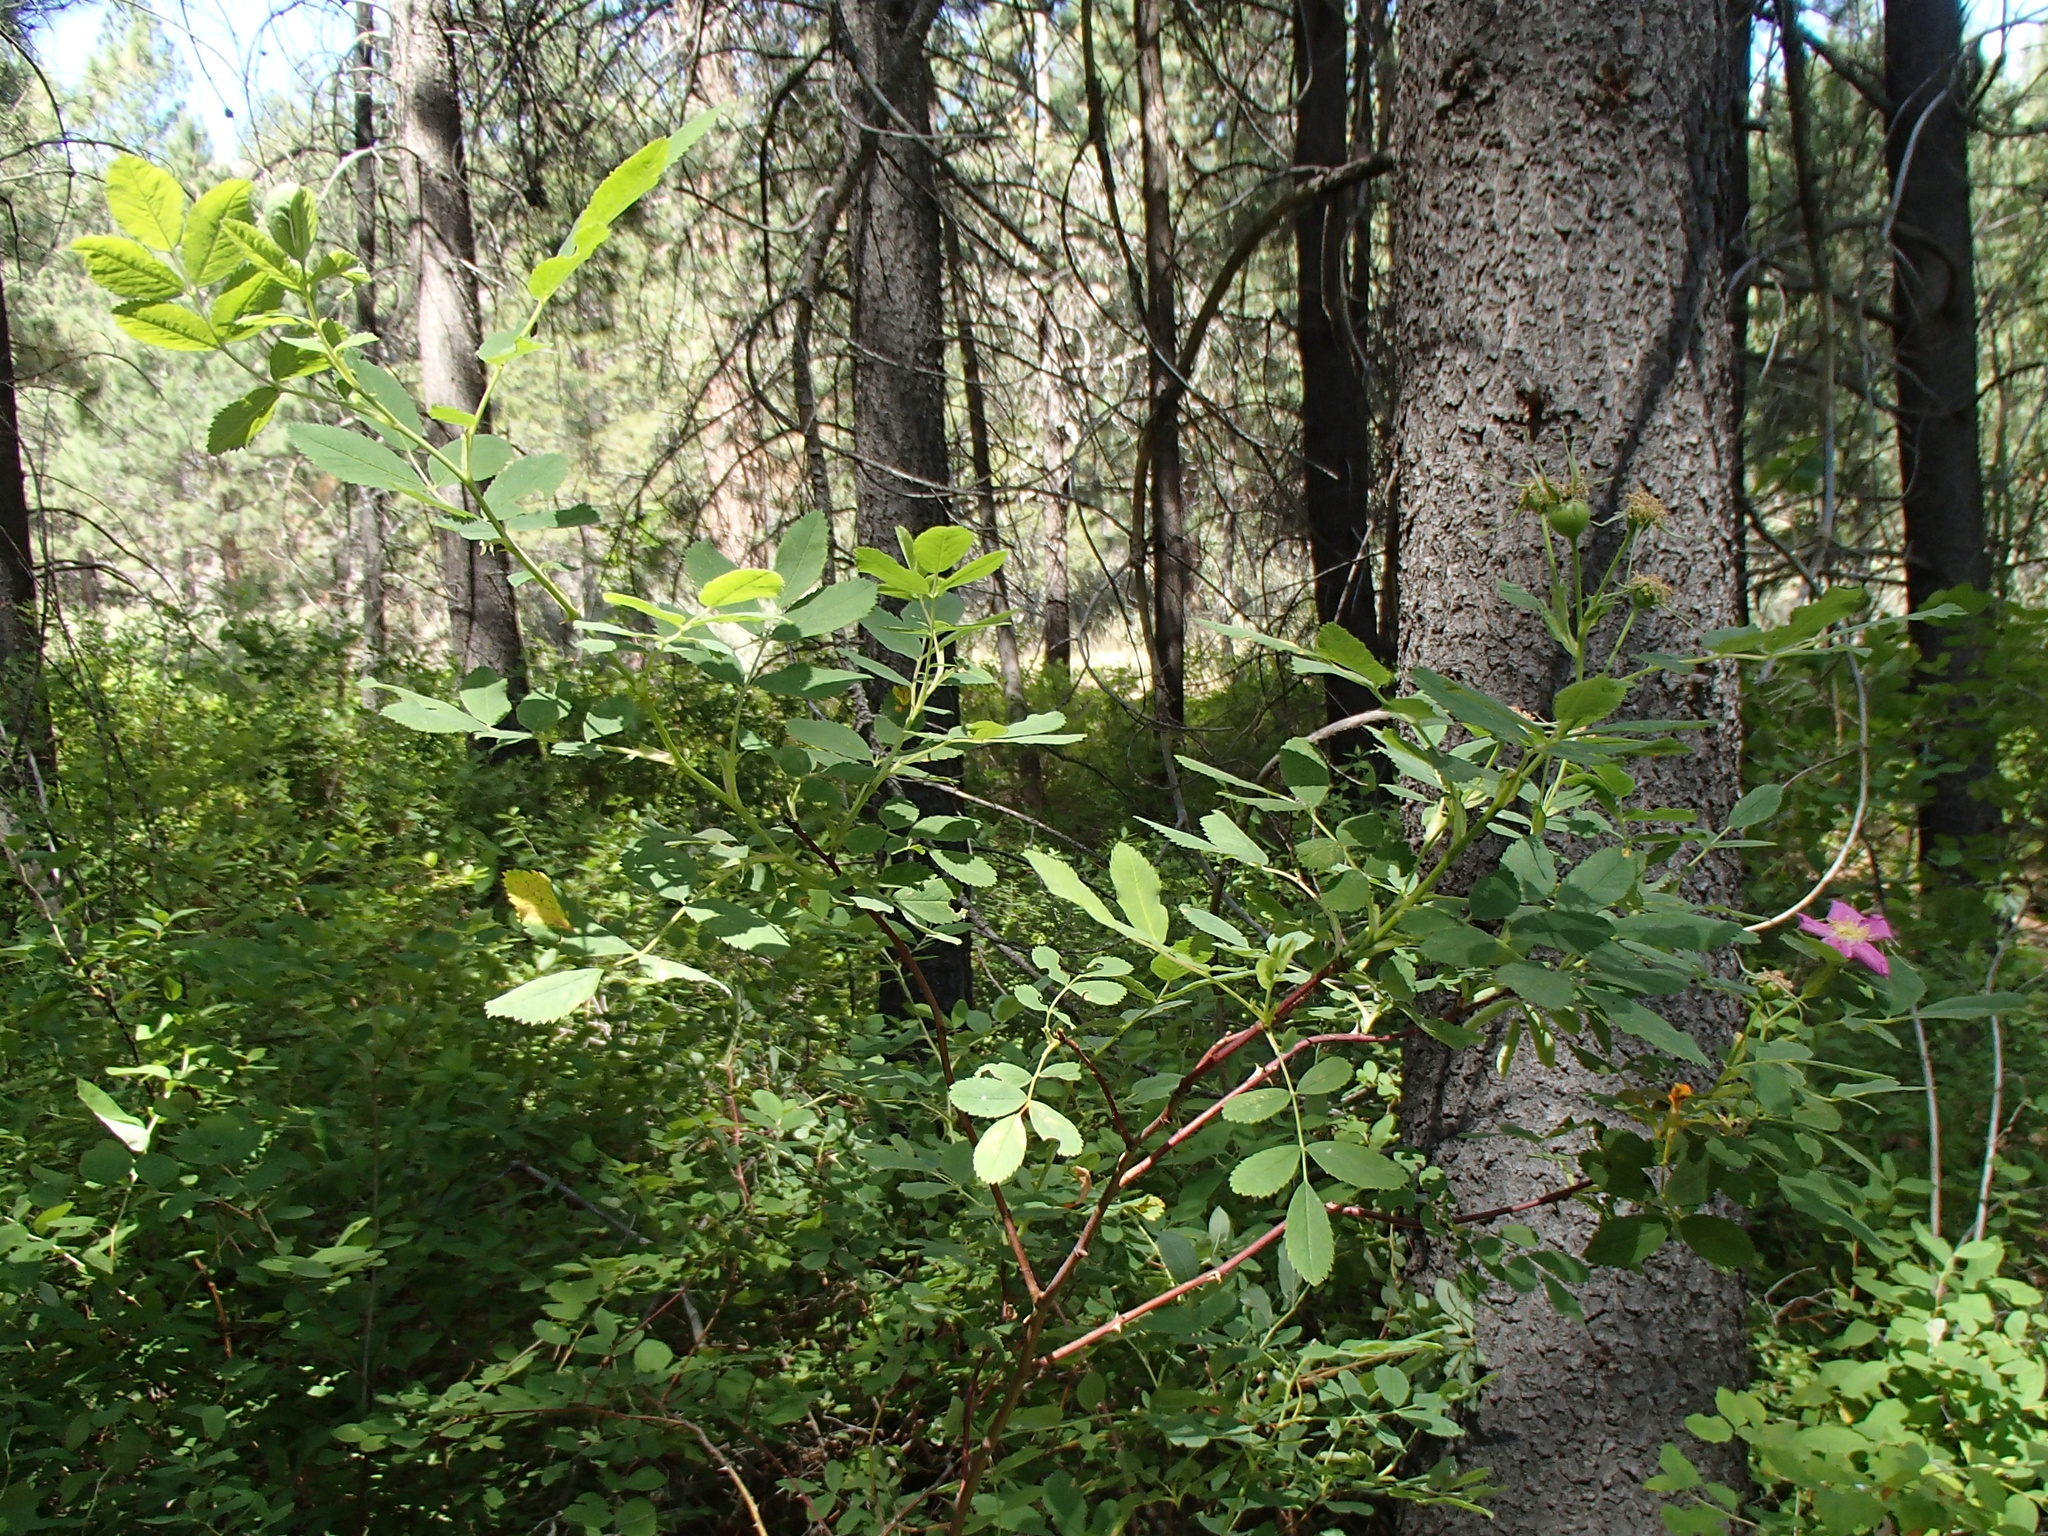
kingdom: Plantae
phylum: Tracheophyta
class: Magnoliopsida
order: Rosales
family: Rosaceae
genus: Rosa
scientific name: Rosa woodsii
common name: Woods's rose
